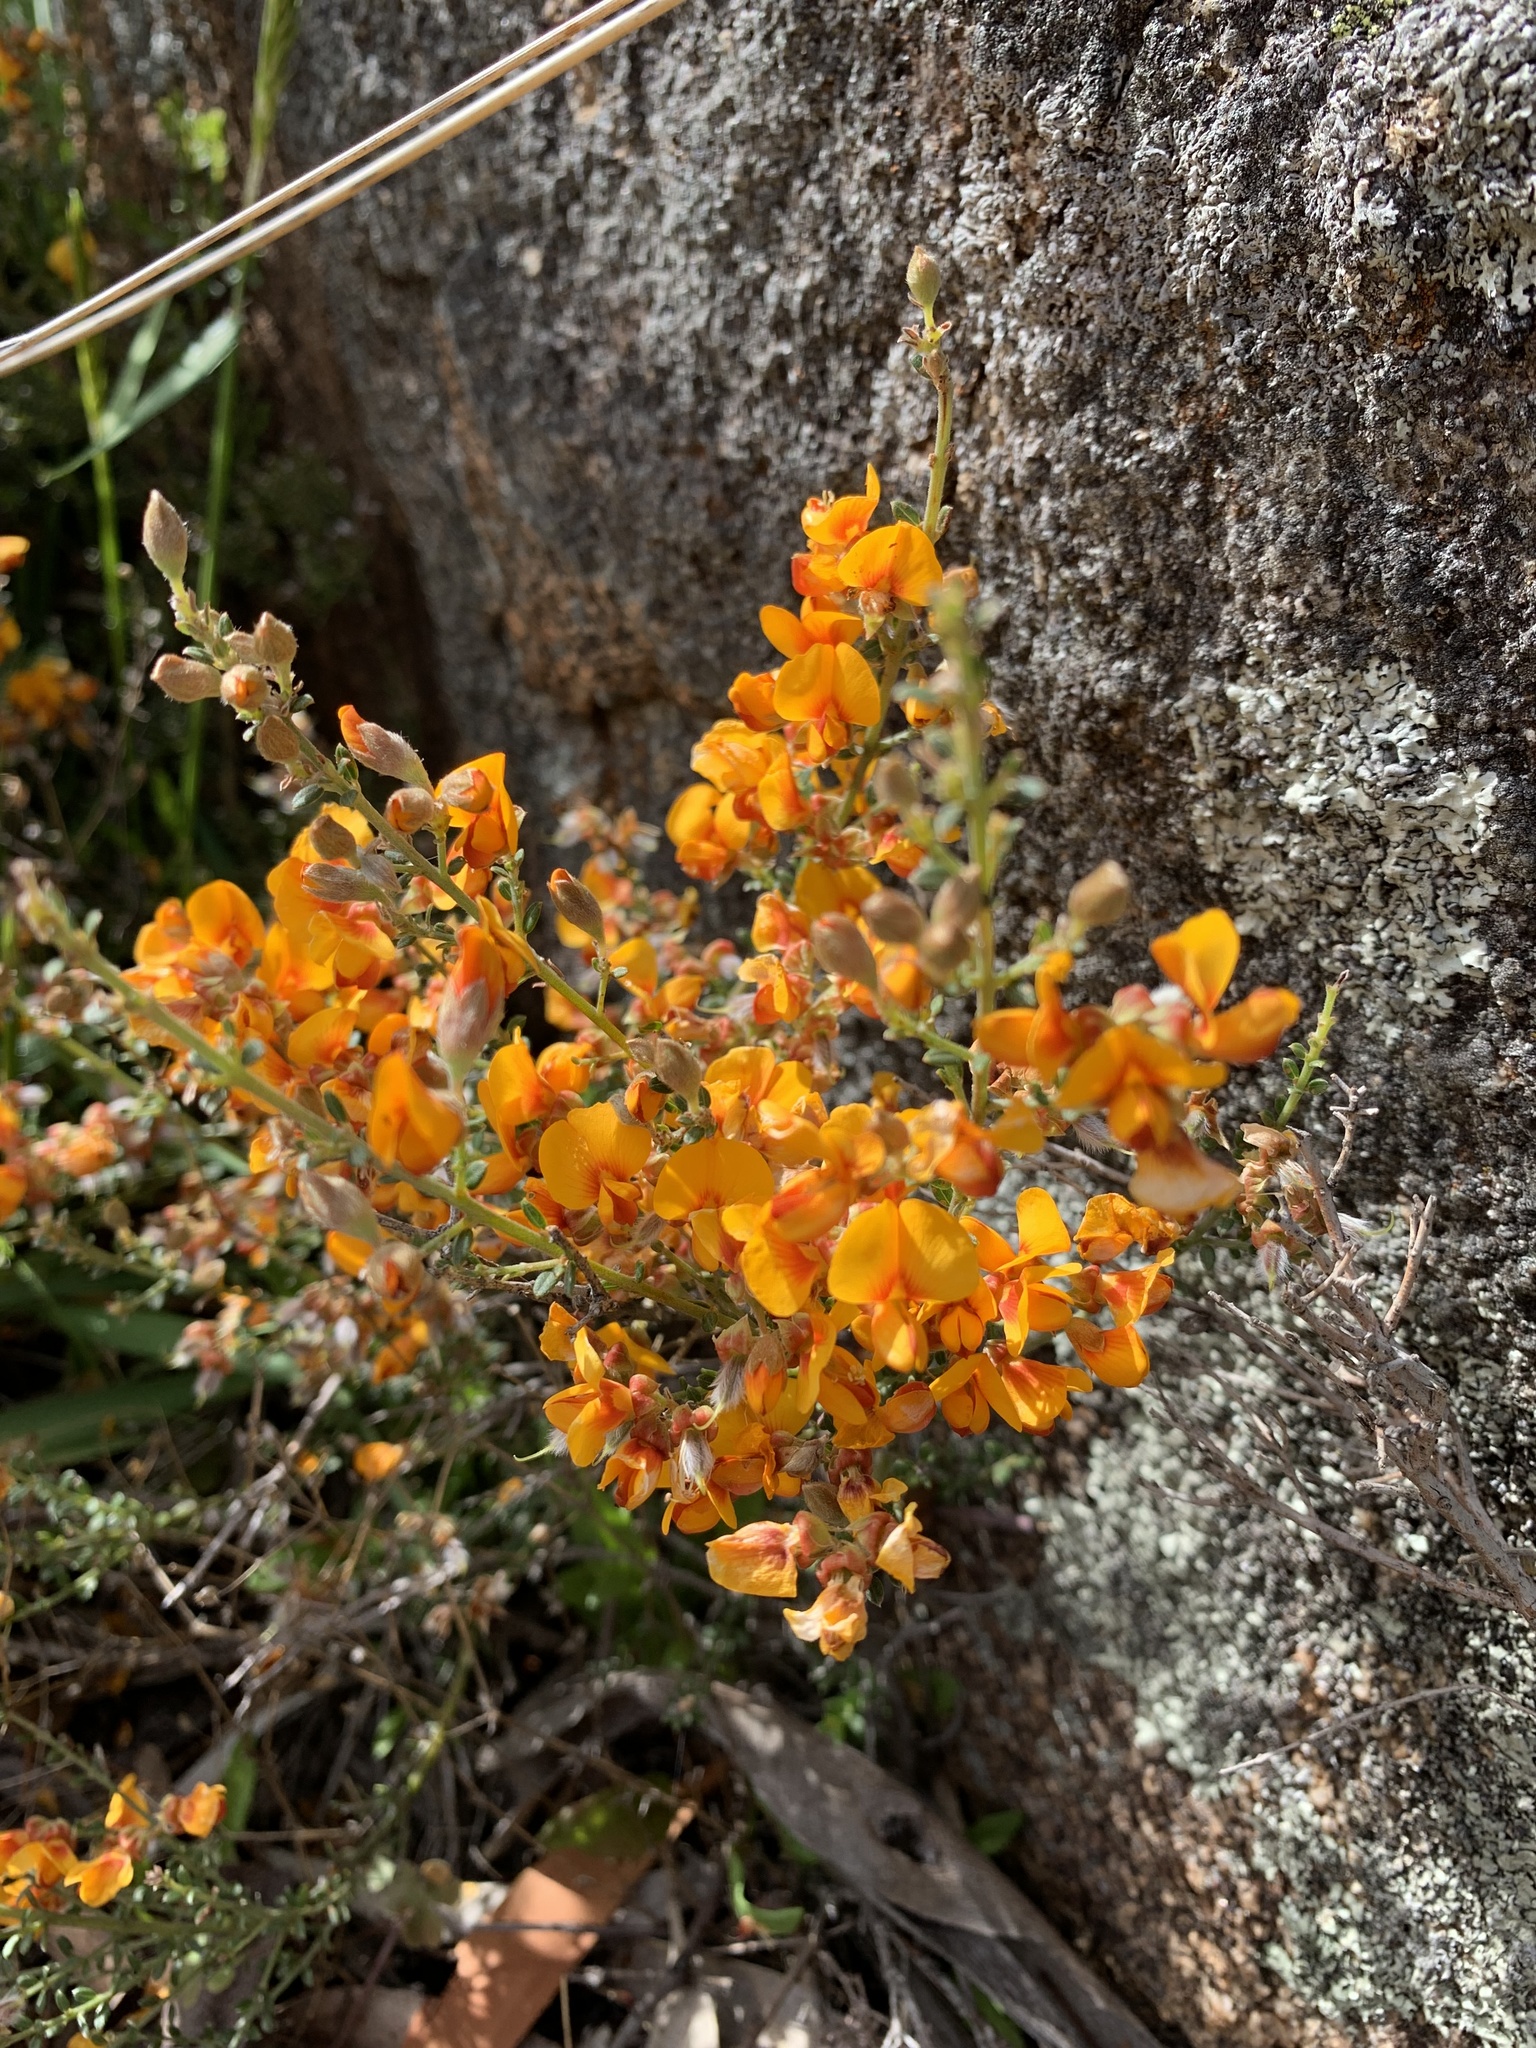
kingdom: Plantae
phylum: Tracheophyta
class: Magnoliopsida
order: Fabales
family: Fabaceae
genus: Oxylobium
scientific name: Oxylobium oxylobioides
